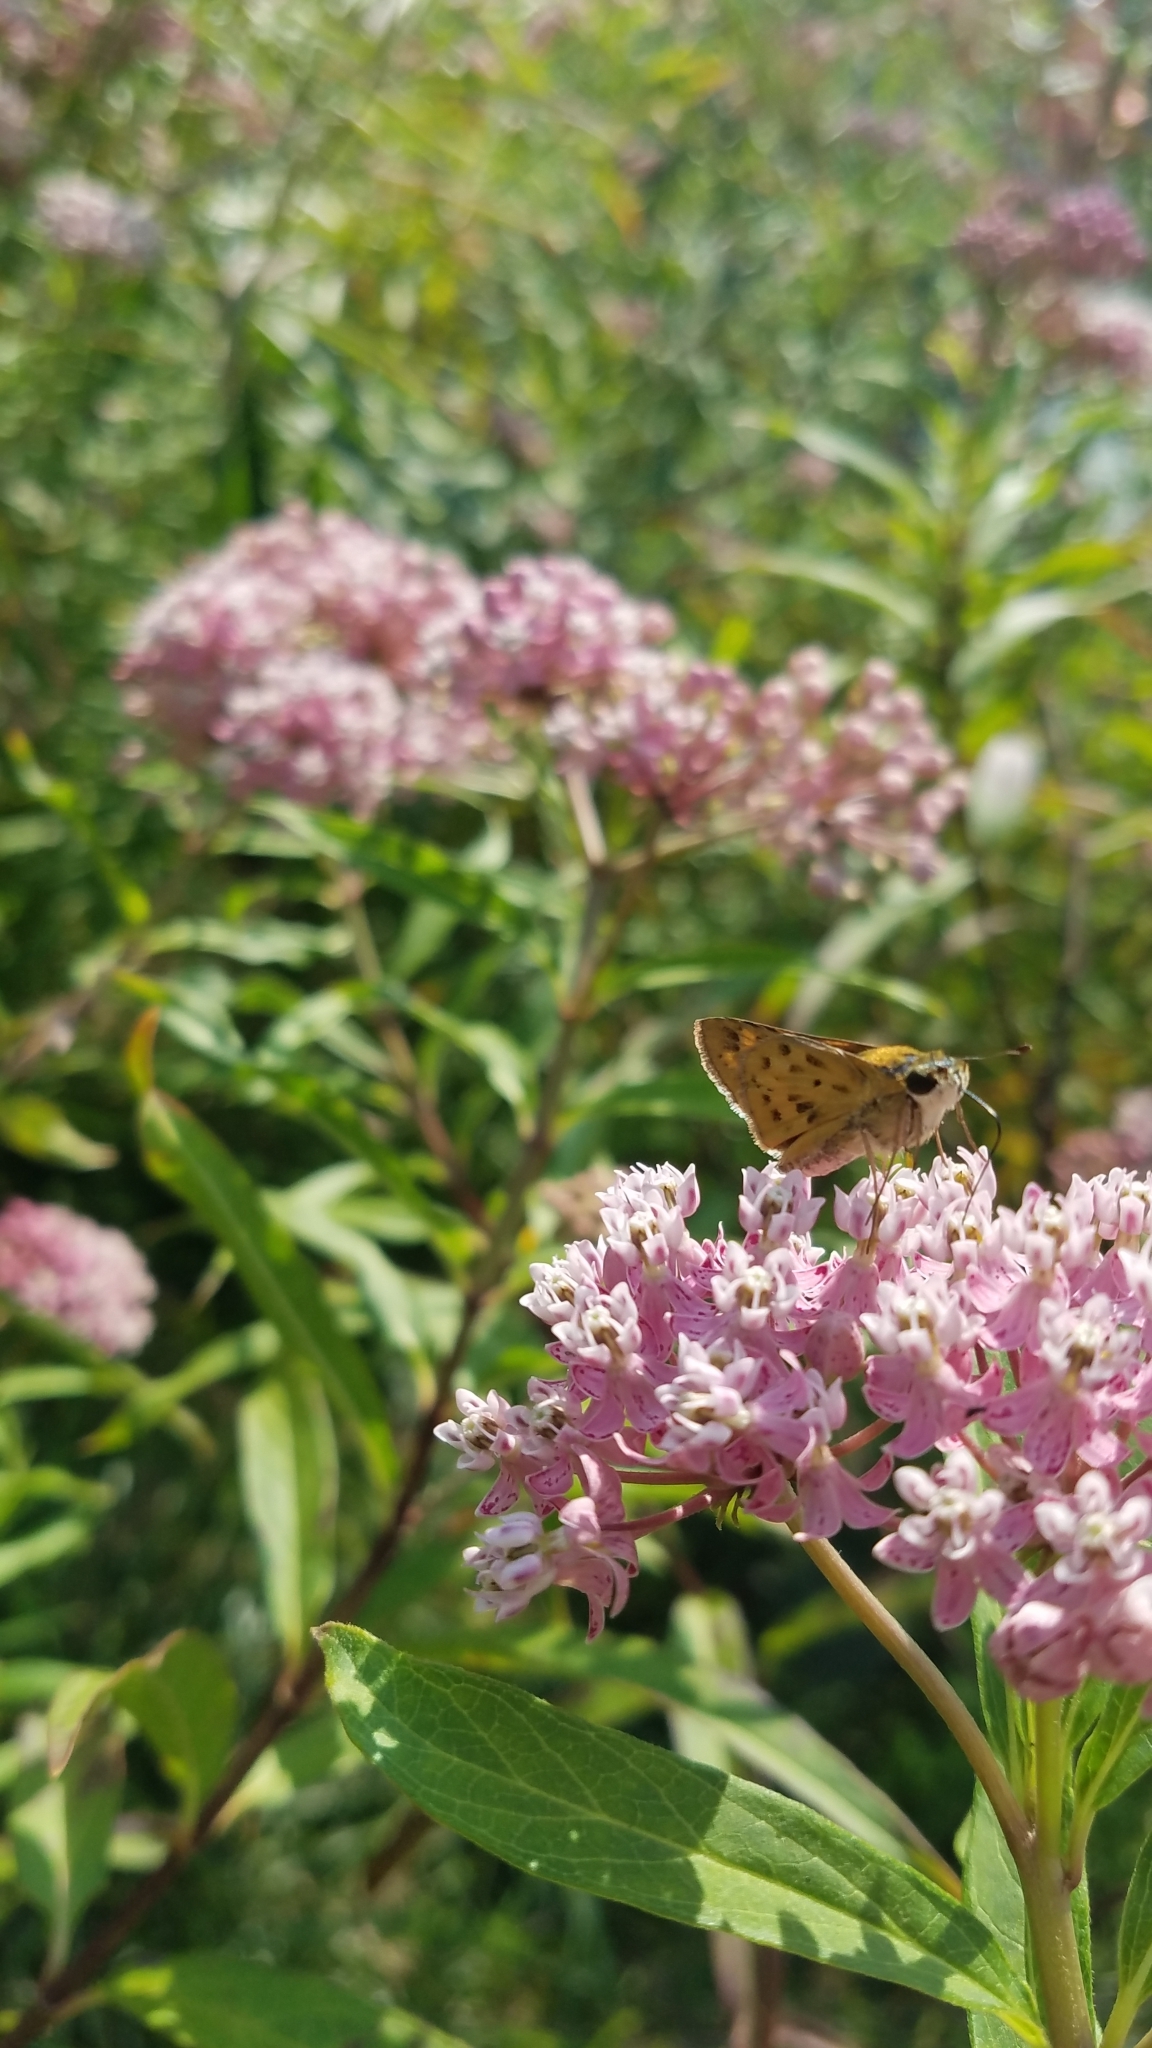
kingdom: Animalia
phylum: Arthropoda
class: Insecta
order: Lepidoptera
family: Hesperiidae
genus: Hylephila
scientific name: Hylephila phyleus
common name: Fiery skipper
